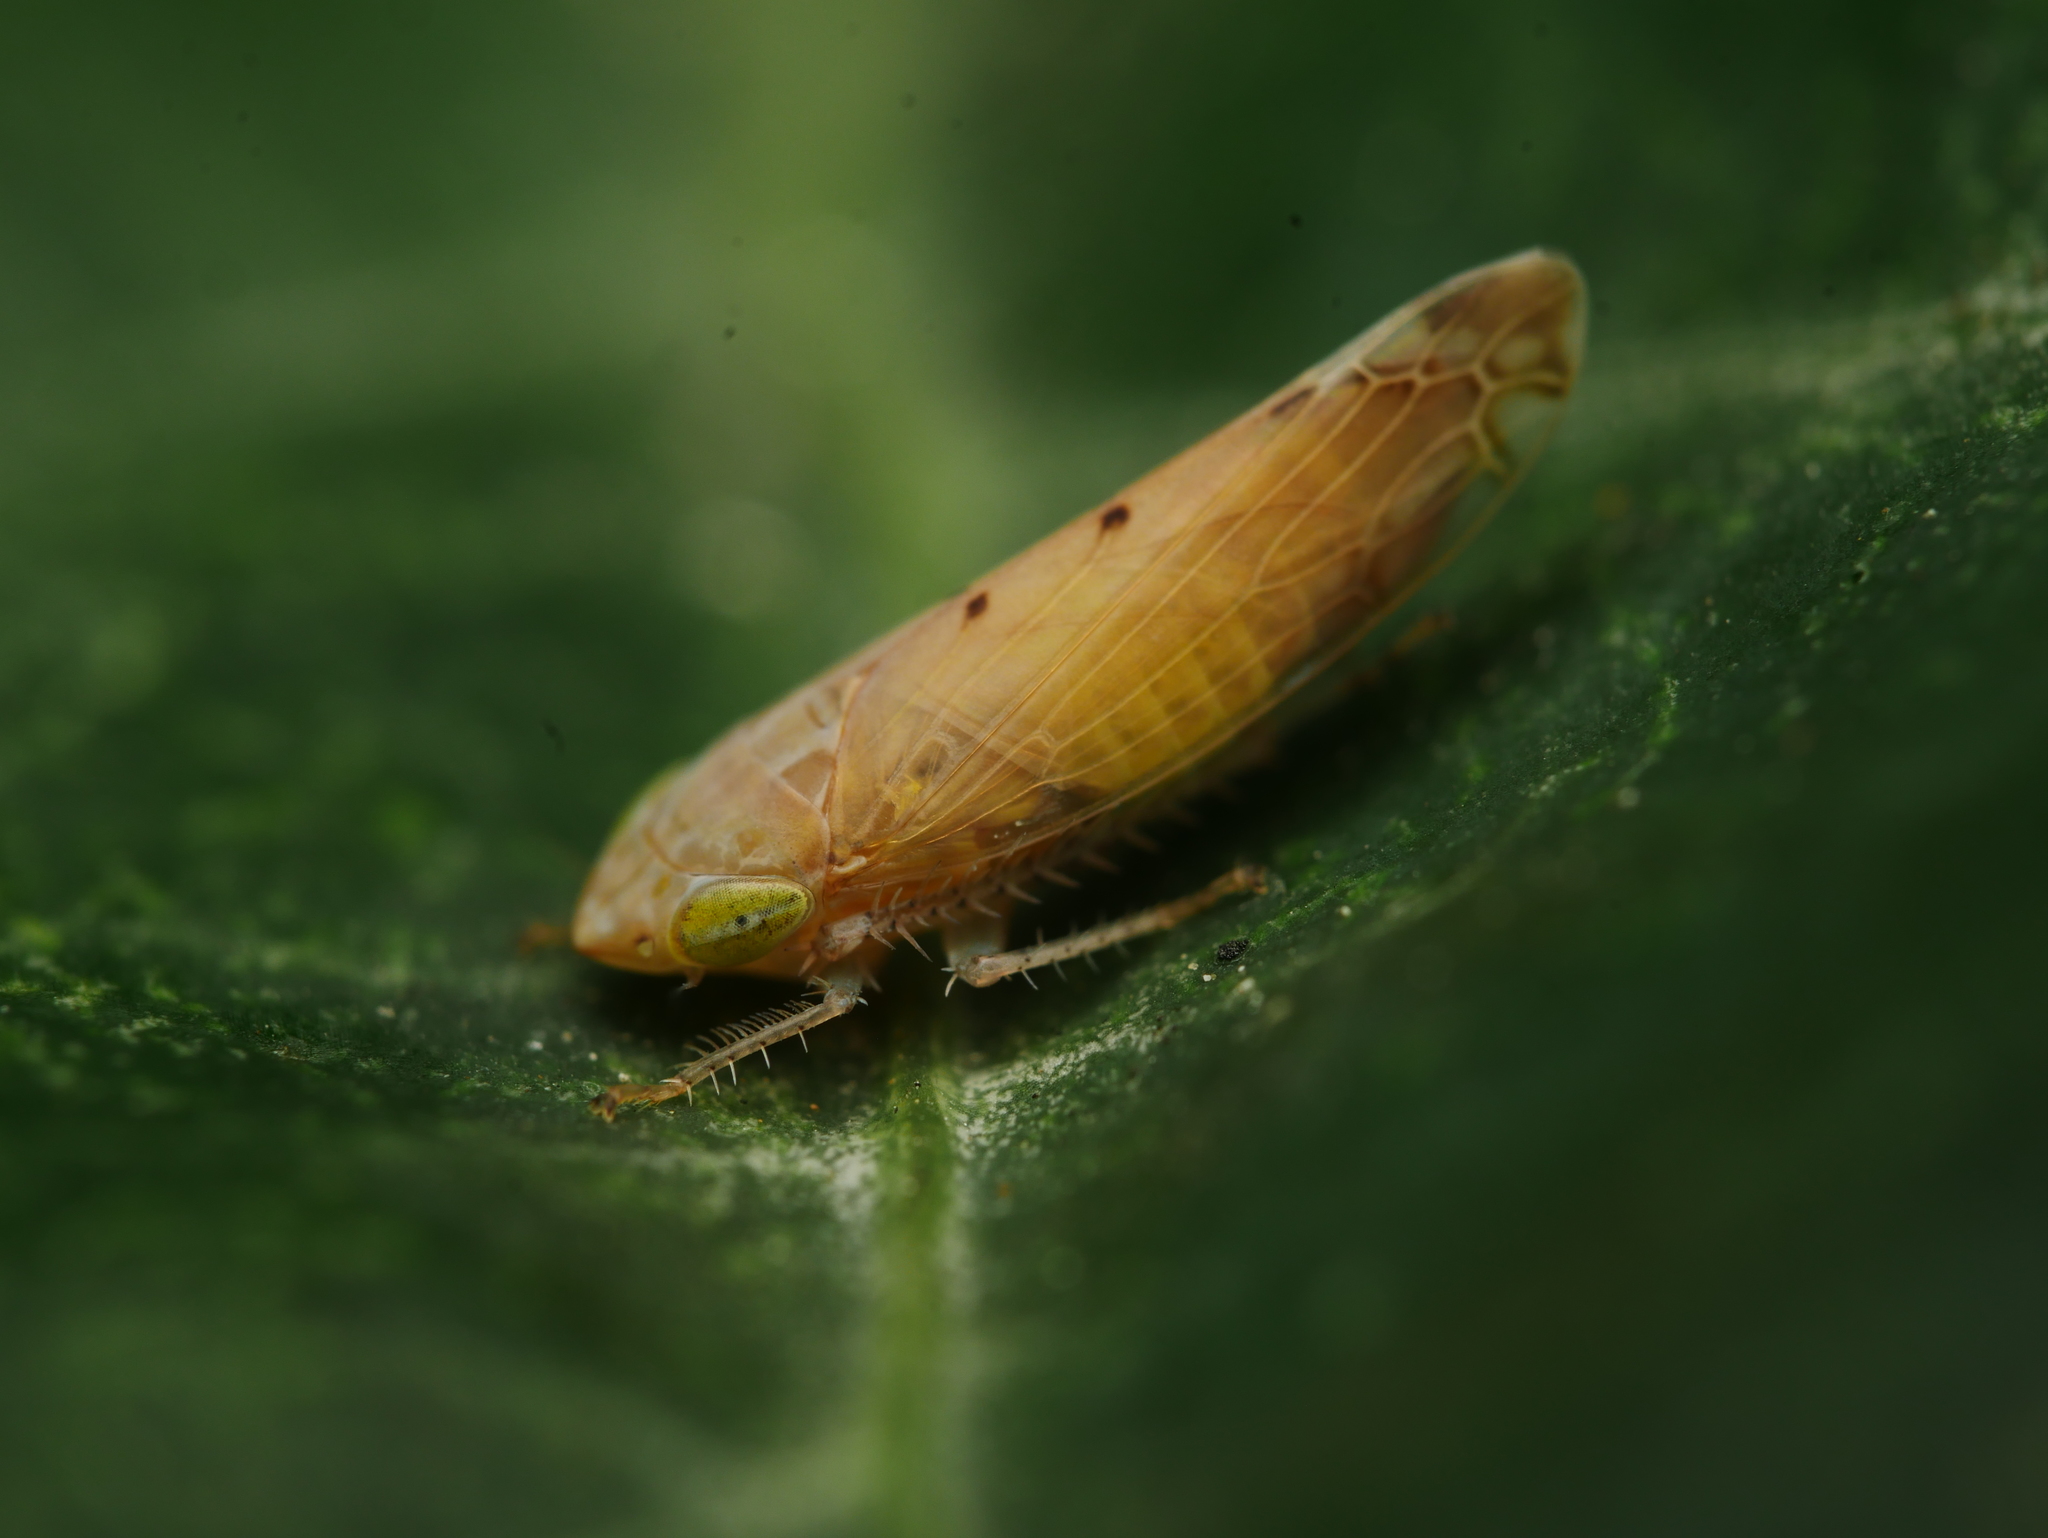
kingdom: Animalia
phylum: Arthropoda
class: Insecta
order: Hemiptera
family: Cicadellidae
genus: Synophropsis
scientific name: Synophropsis lauri
